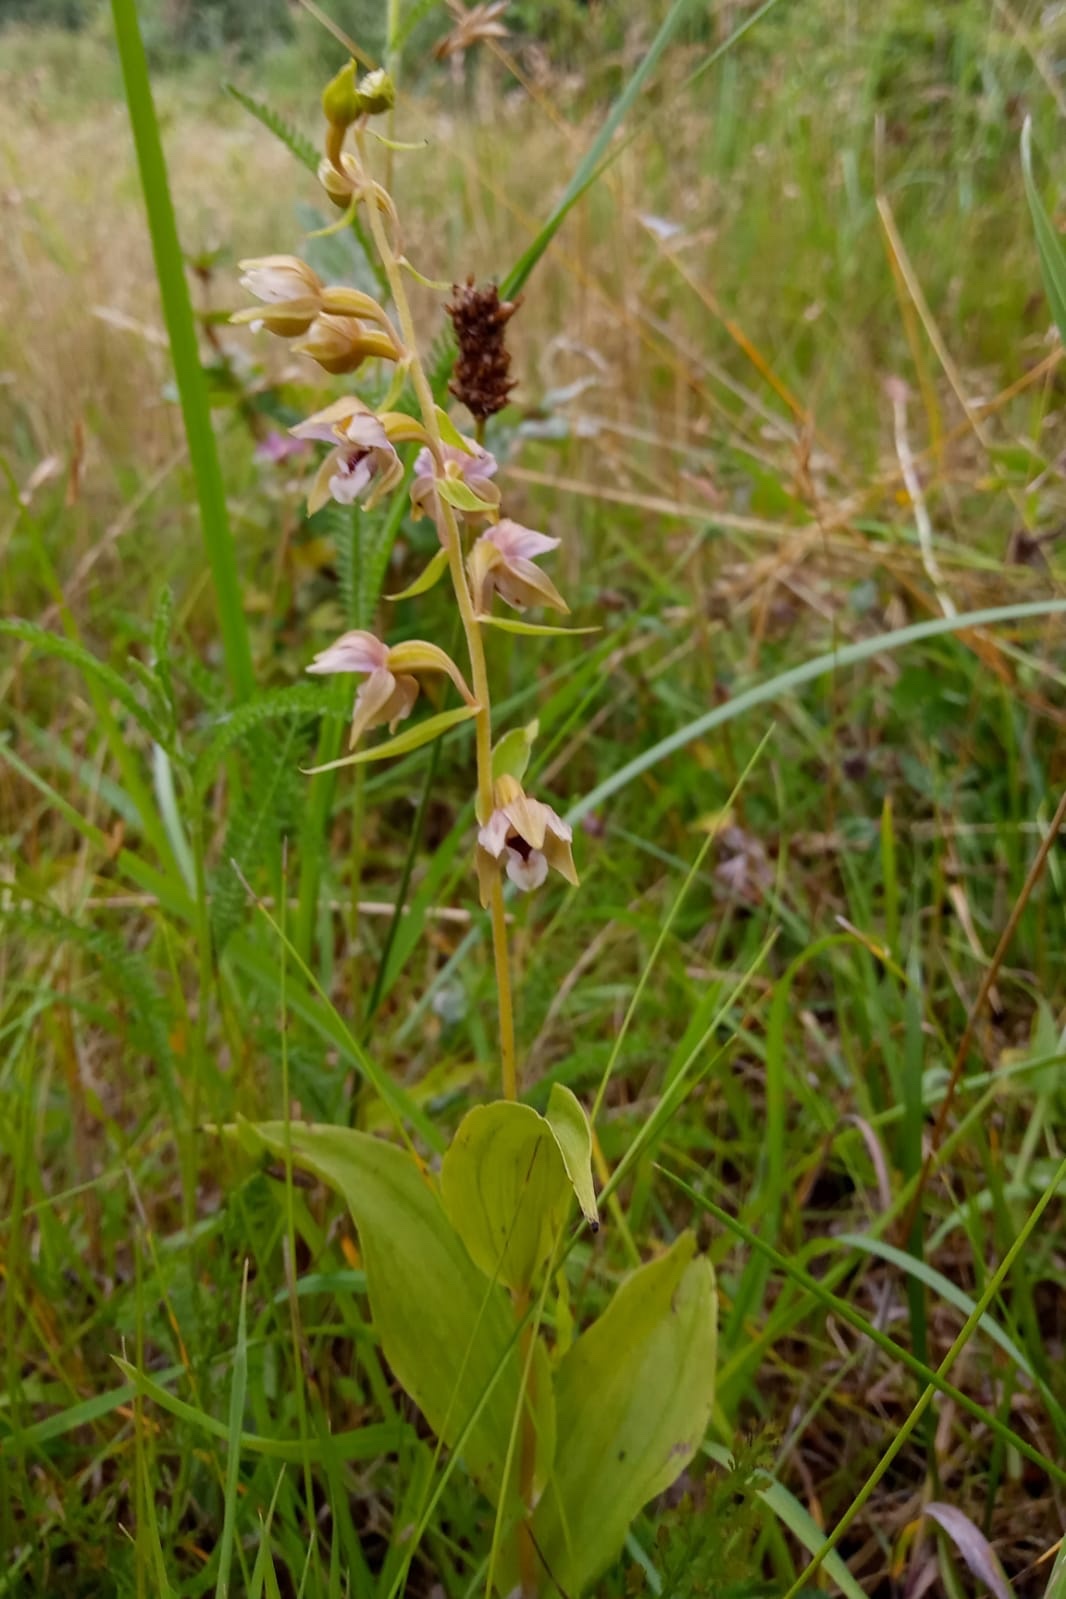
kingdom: Plantae
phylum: Tracheophyta
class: Liliopsida
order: Asparagales
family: Orchidaceae
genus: Epipactis
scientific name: Epipactis palustris
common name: Marsh helleborine
